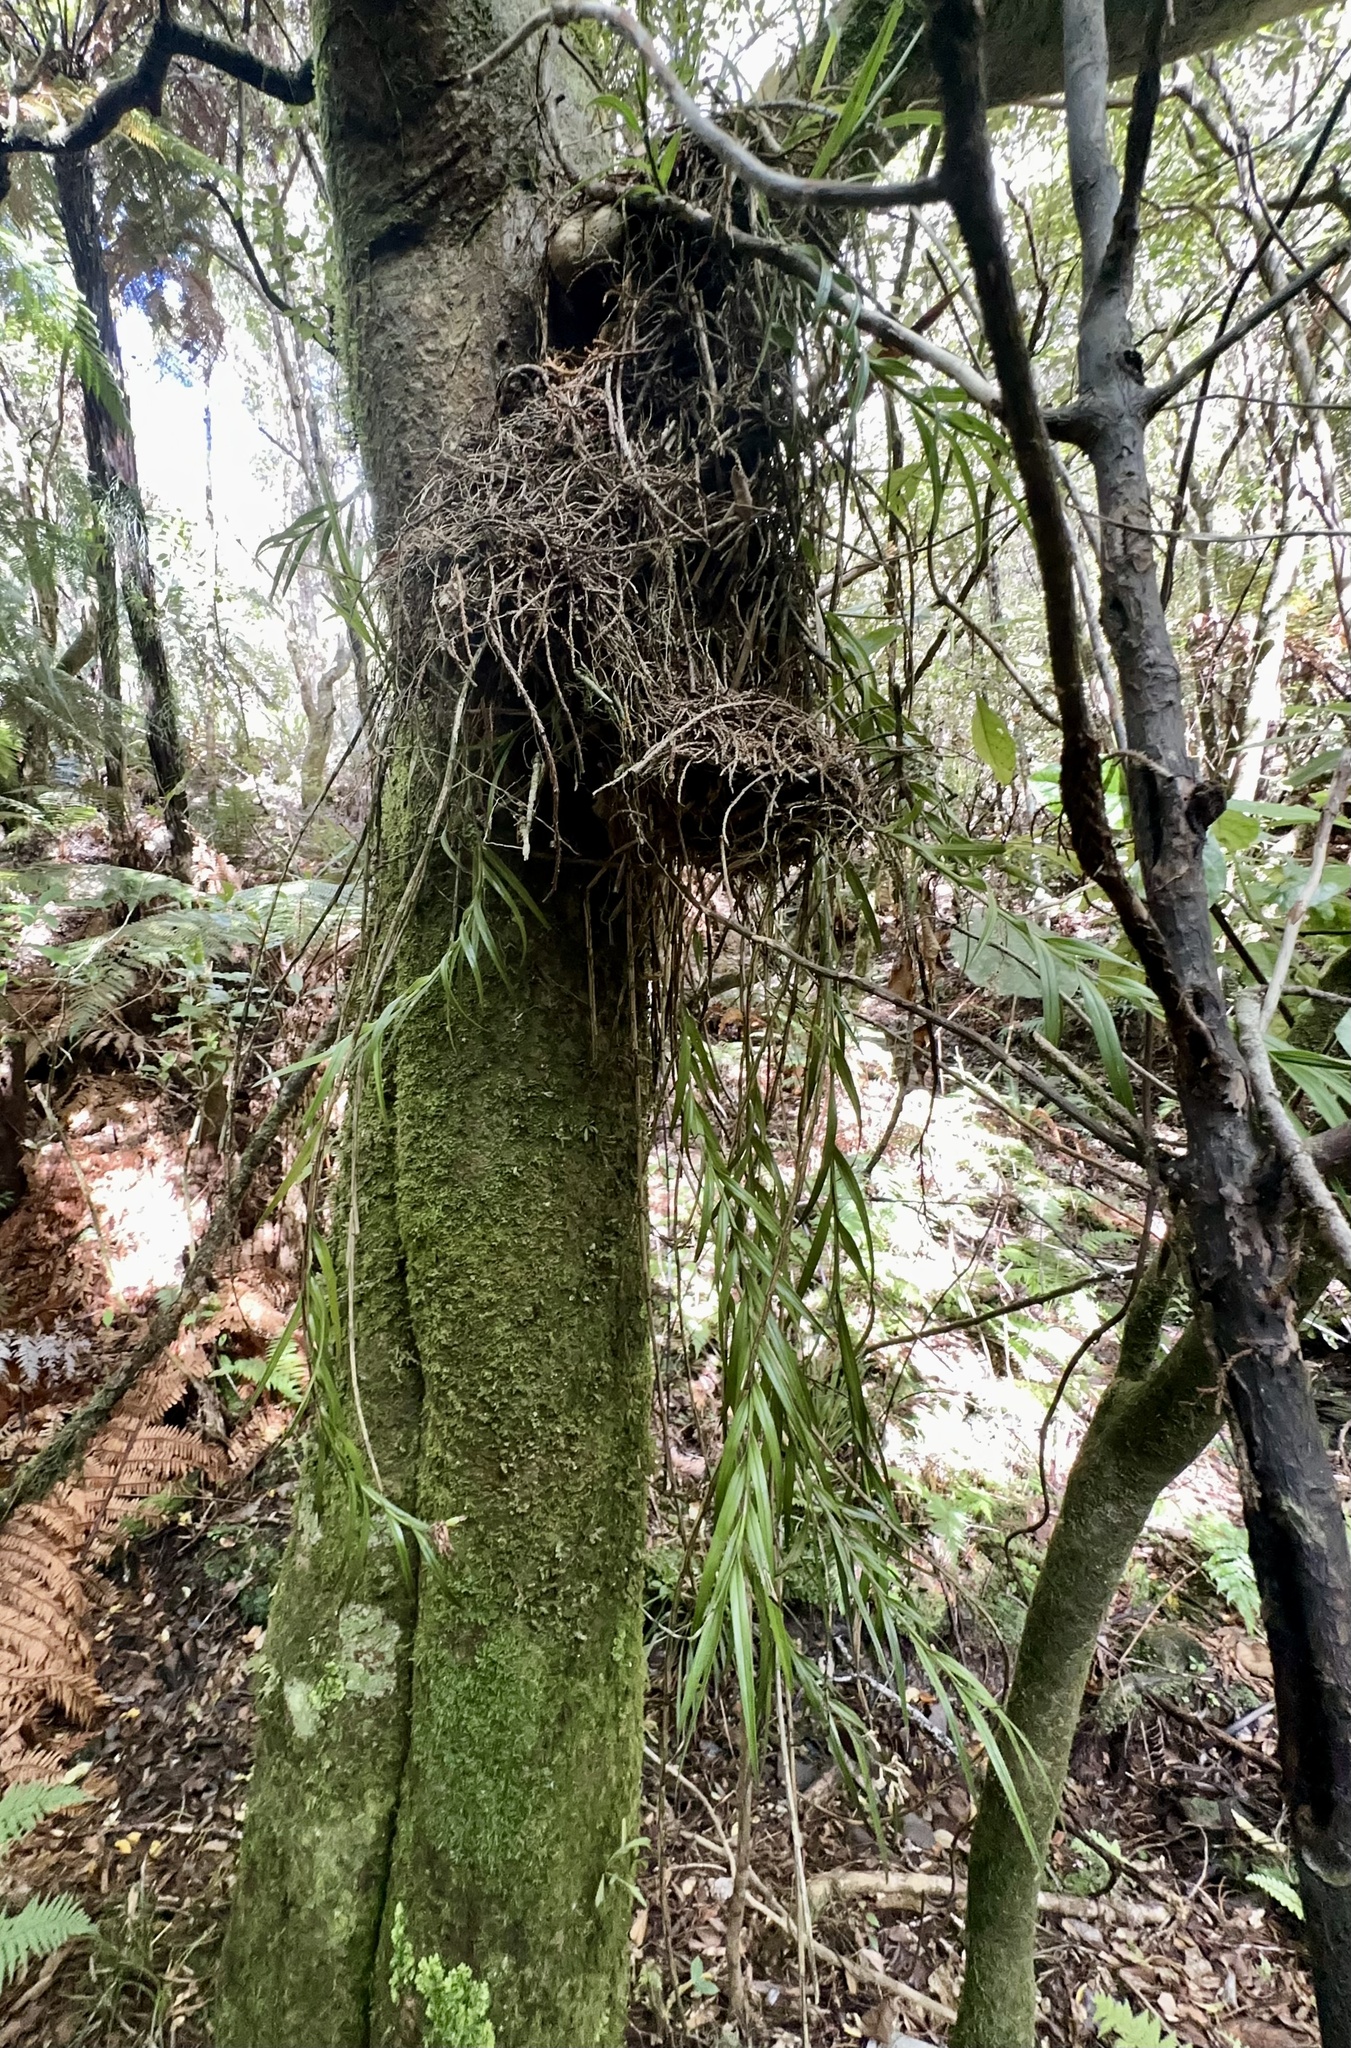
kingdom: Plantae
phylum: Tracheophyta
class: Liliopsida
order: Asparagales
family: Orchidaceae
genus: Earina
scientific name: Earina autumnalis
